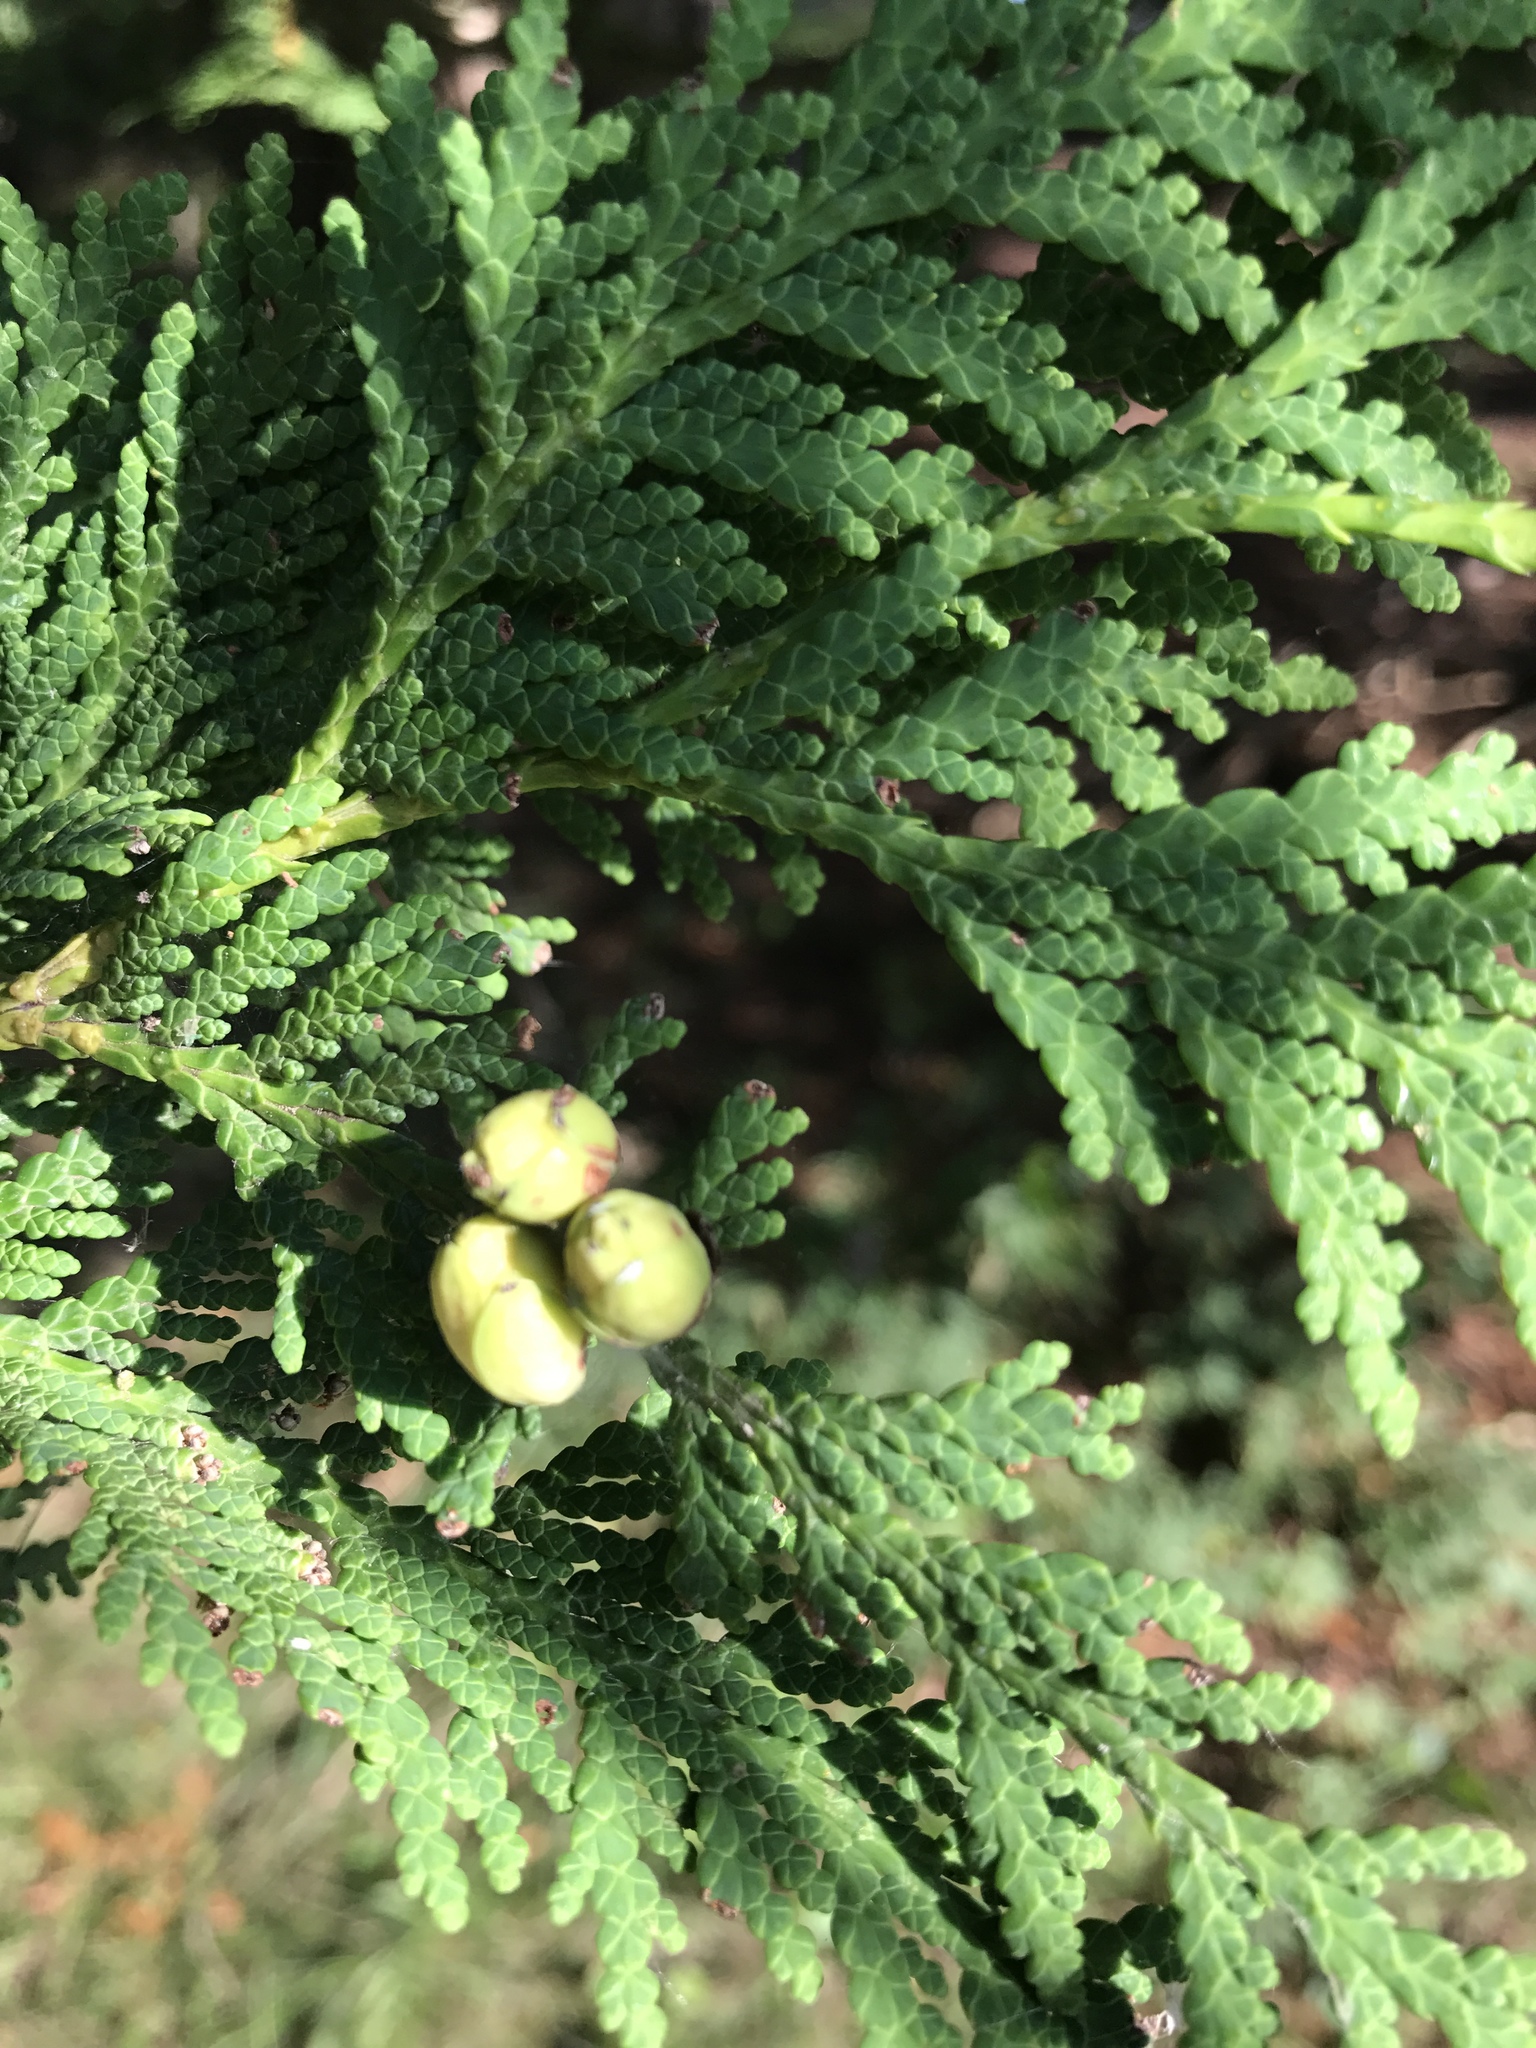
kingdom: Plantae
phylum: Tracheophyta
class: Pinopsida
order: Pinales
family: Cupressaceae
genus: Thuja
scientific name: Thuja occidentalis
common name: Northern white-cedar
